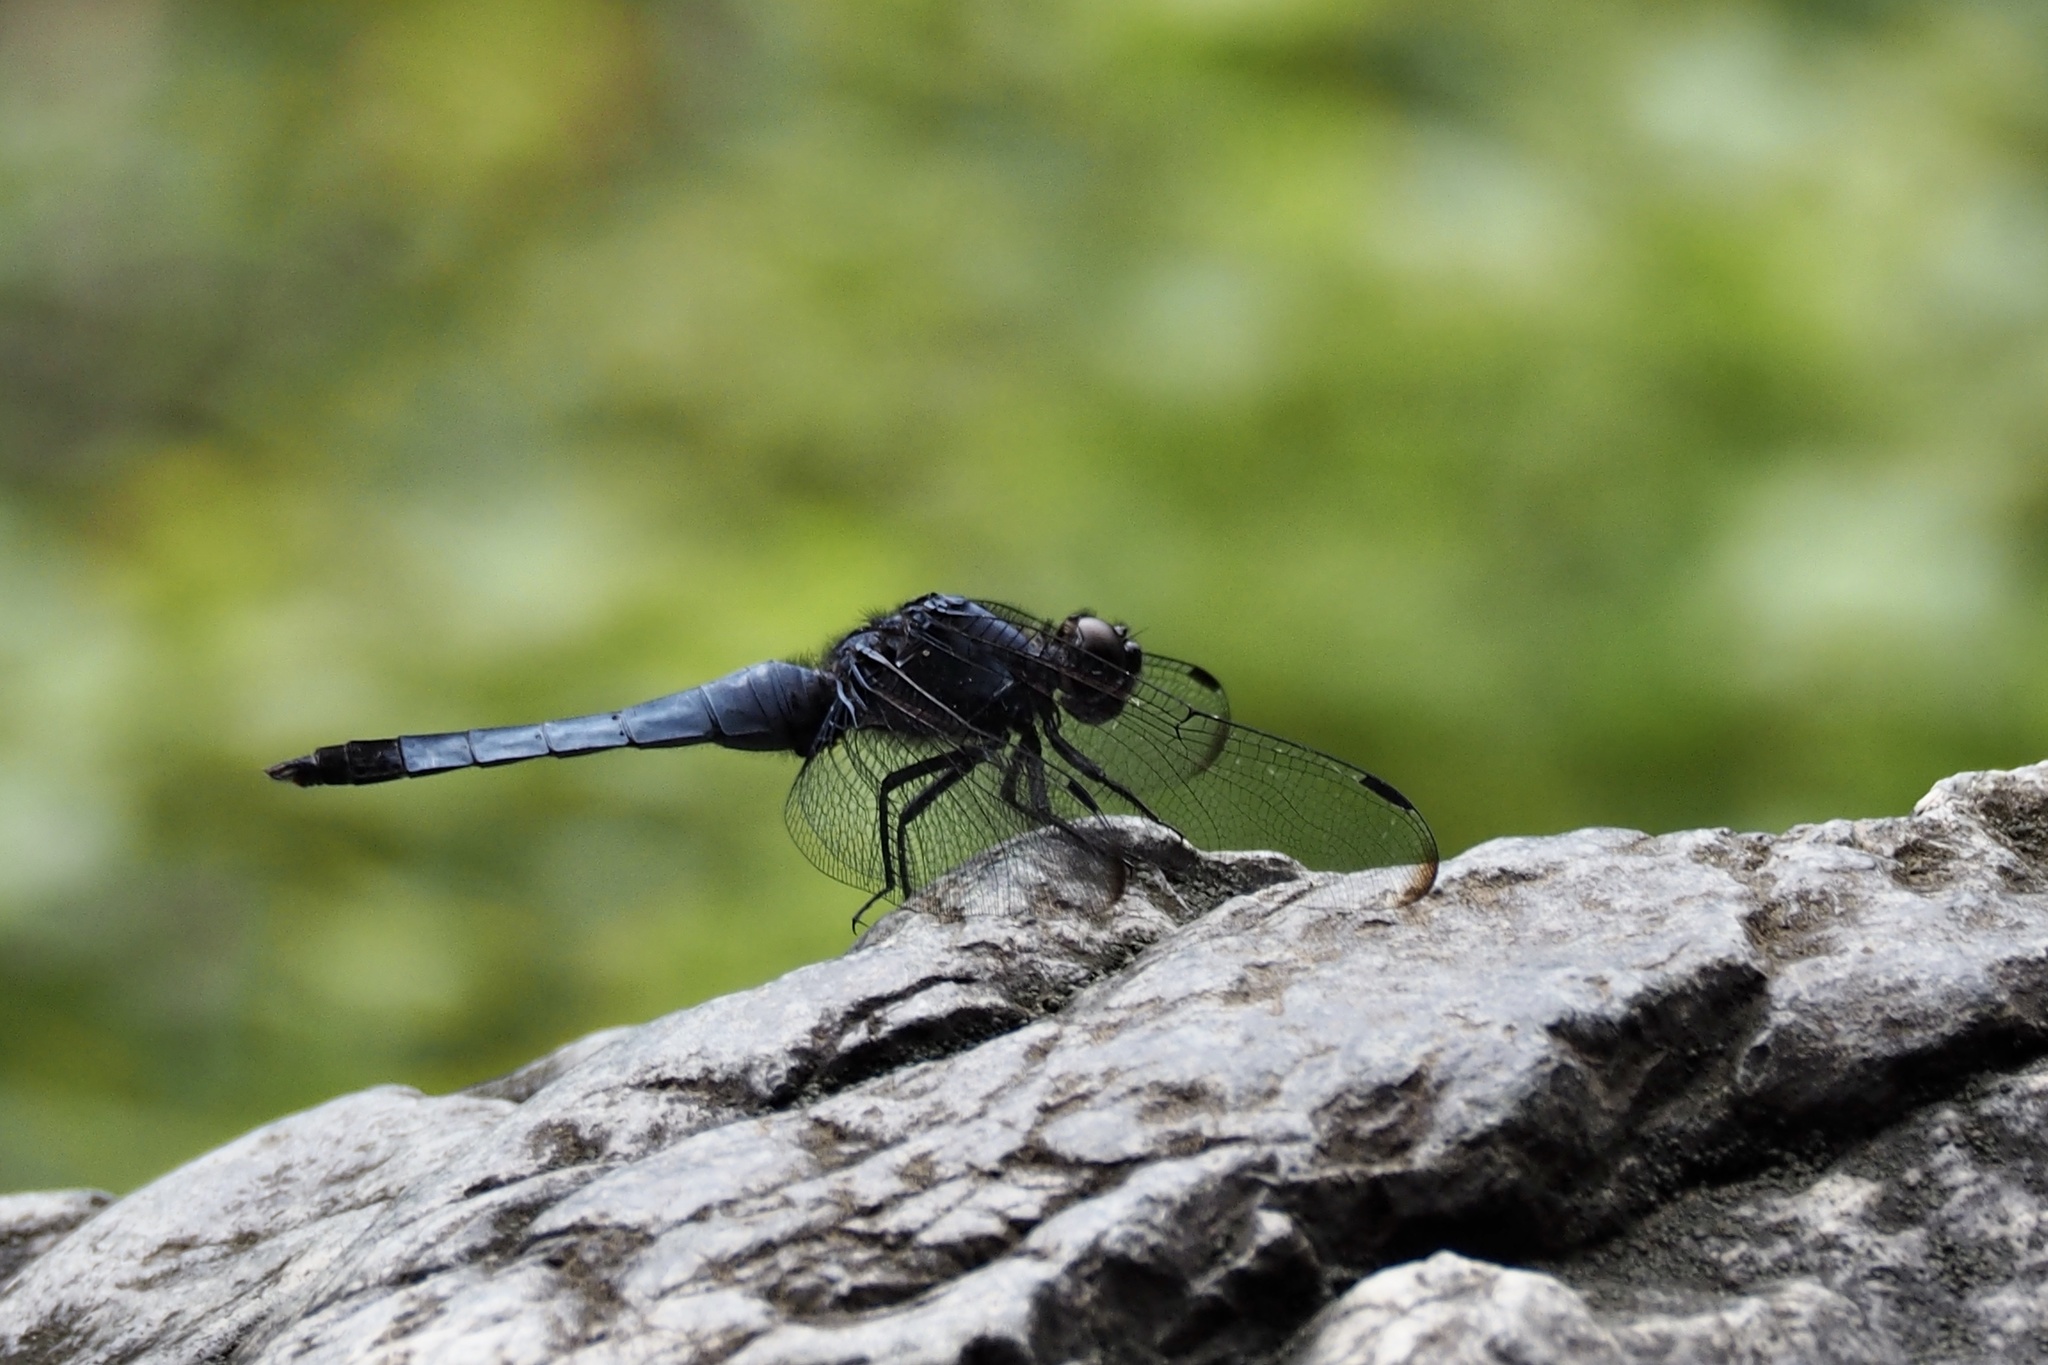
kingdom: Animalia
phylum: Arthropoda
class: Insecta
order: Odonata
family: Libellulidae
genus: Orthetrum
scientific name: Orthetrum melania
